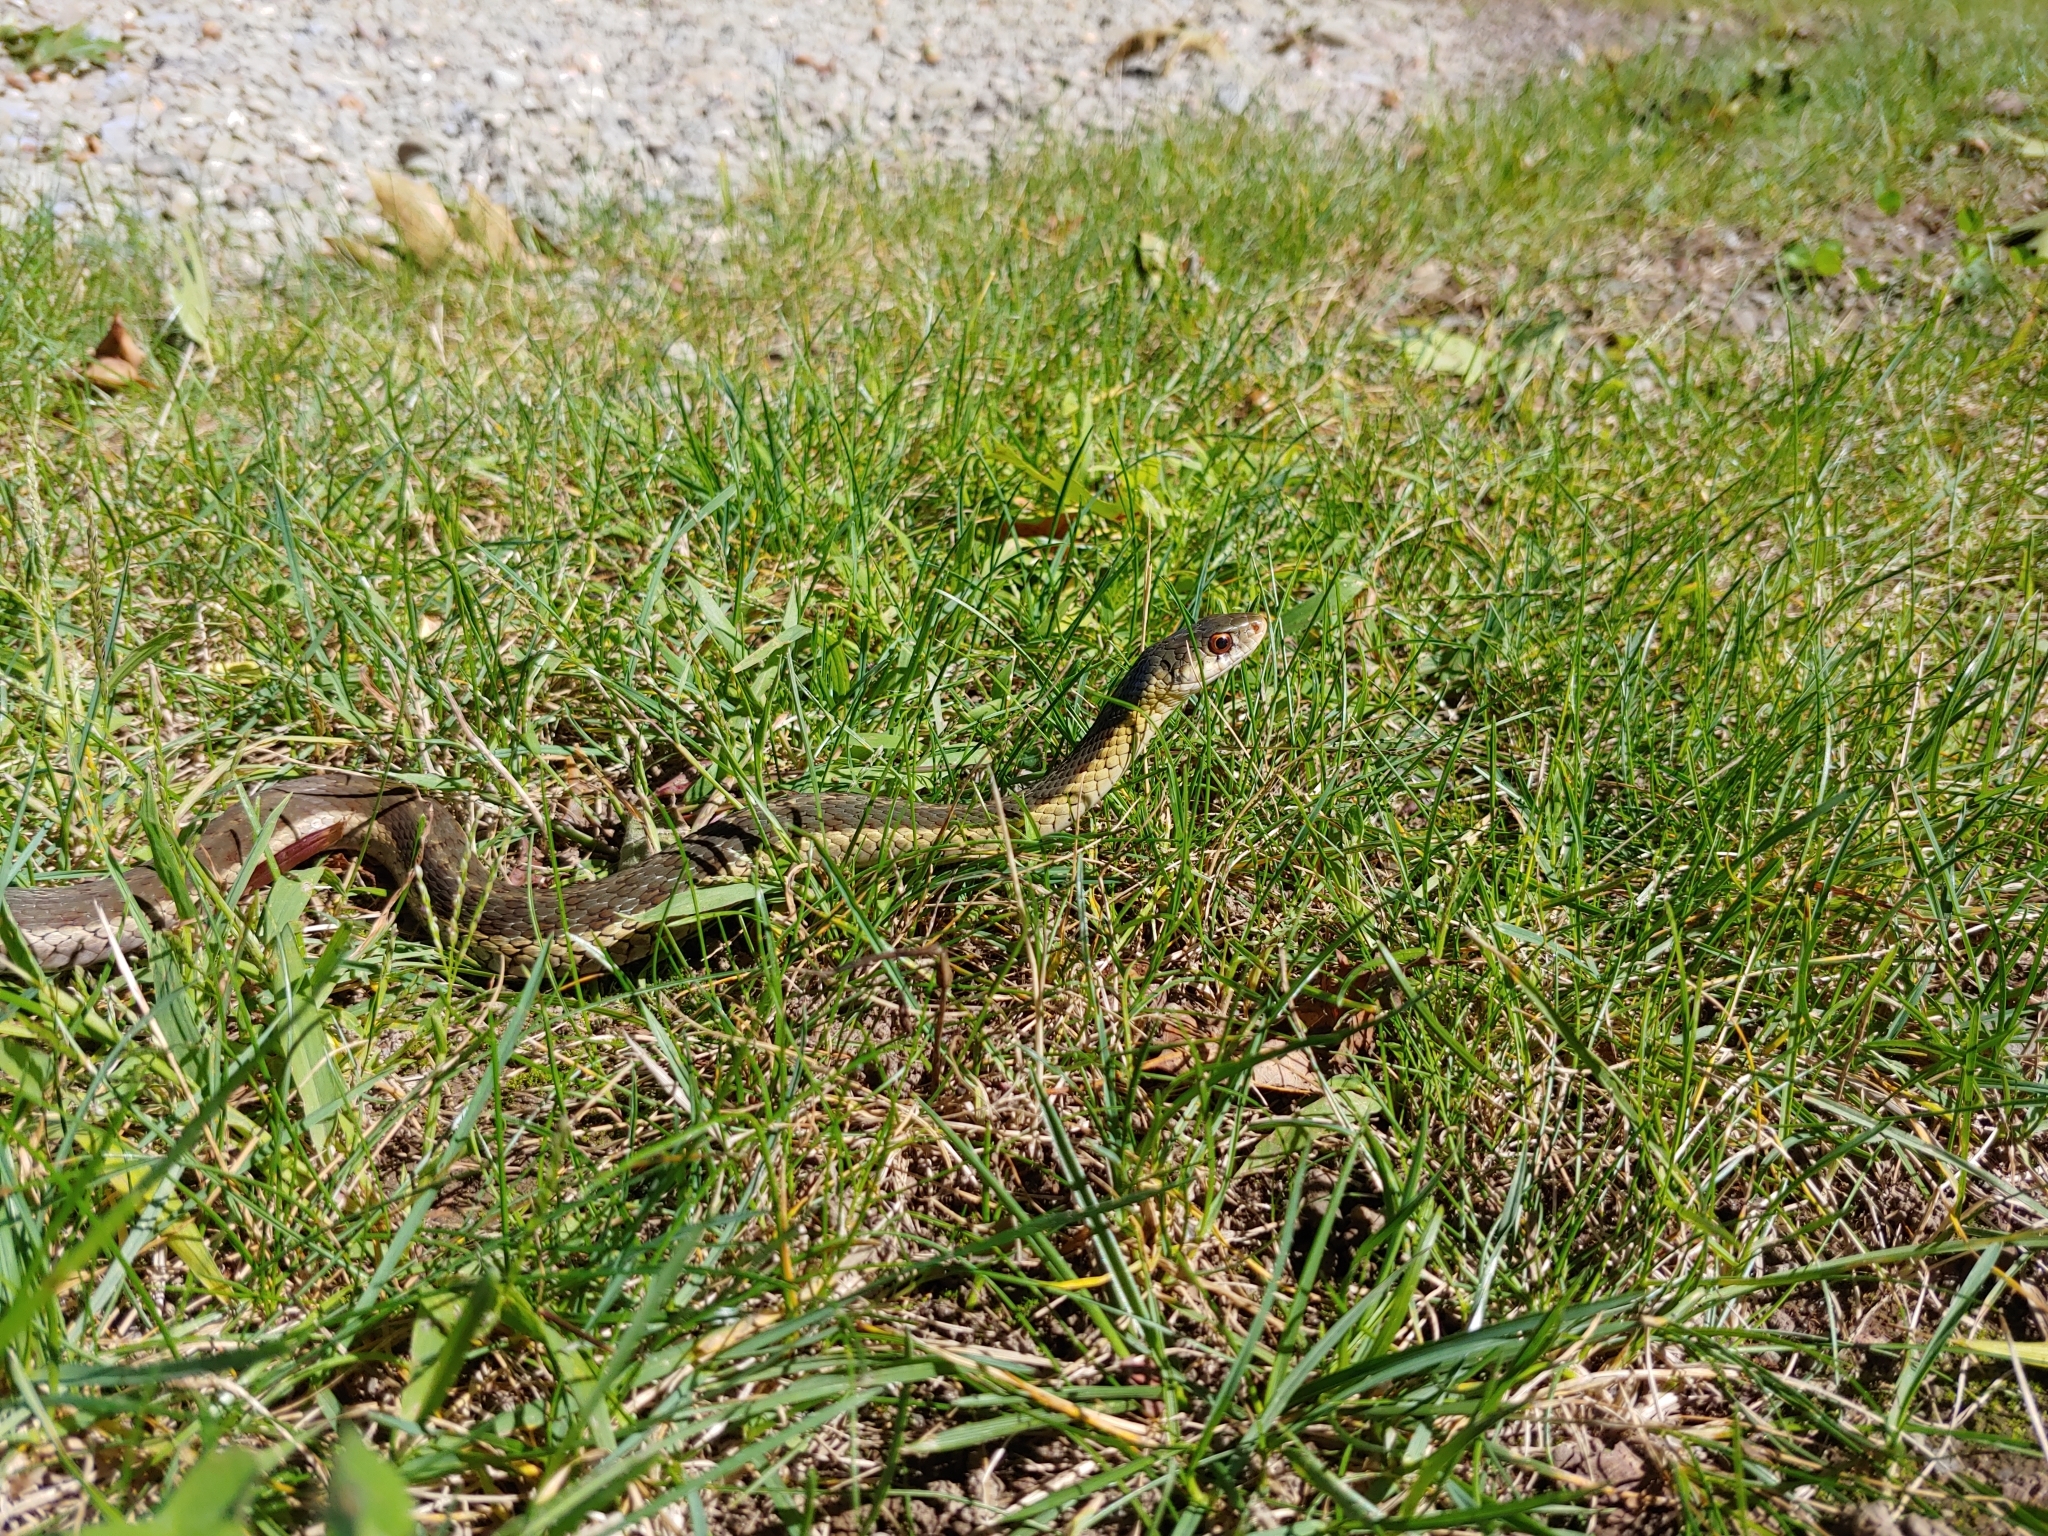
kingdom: Animalia
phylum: Chordata
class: Squamata
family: Colubridae
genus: Thamnophis
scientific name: Thamnophis sirtalis
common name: Common garter snake
